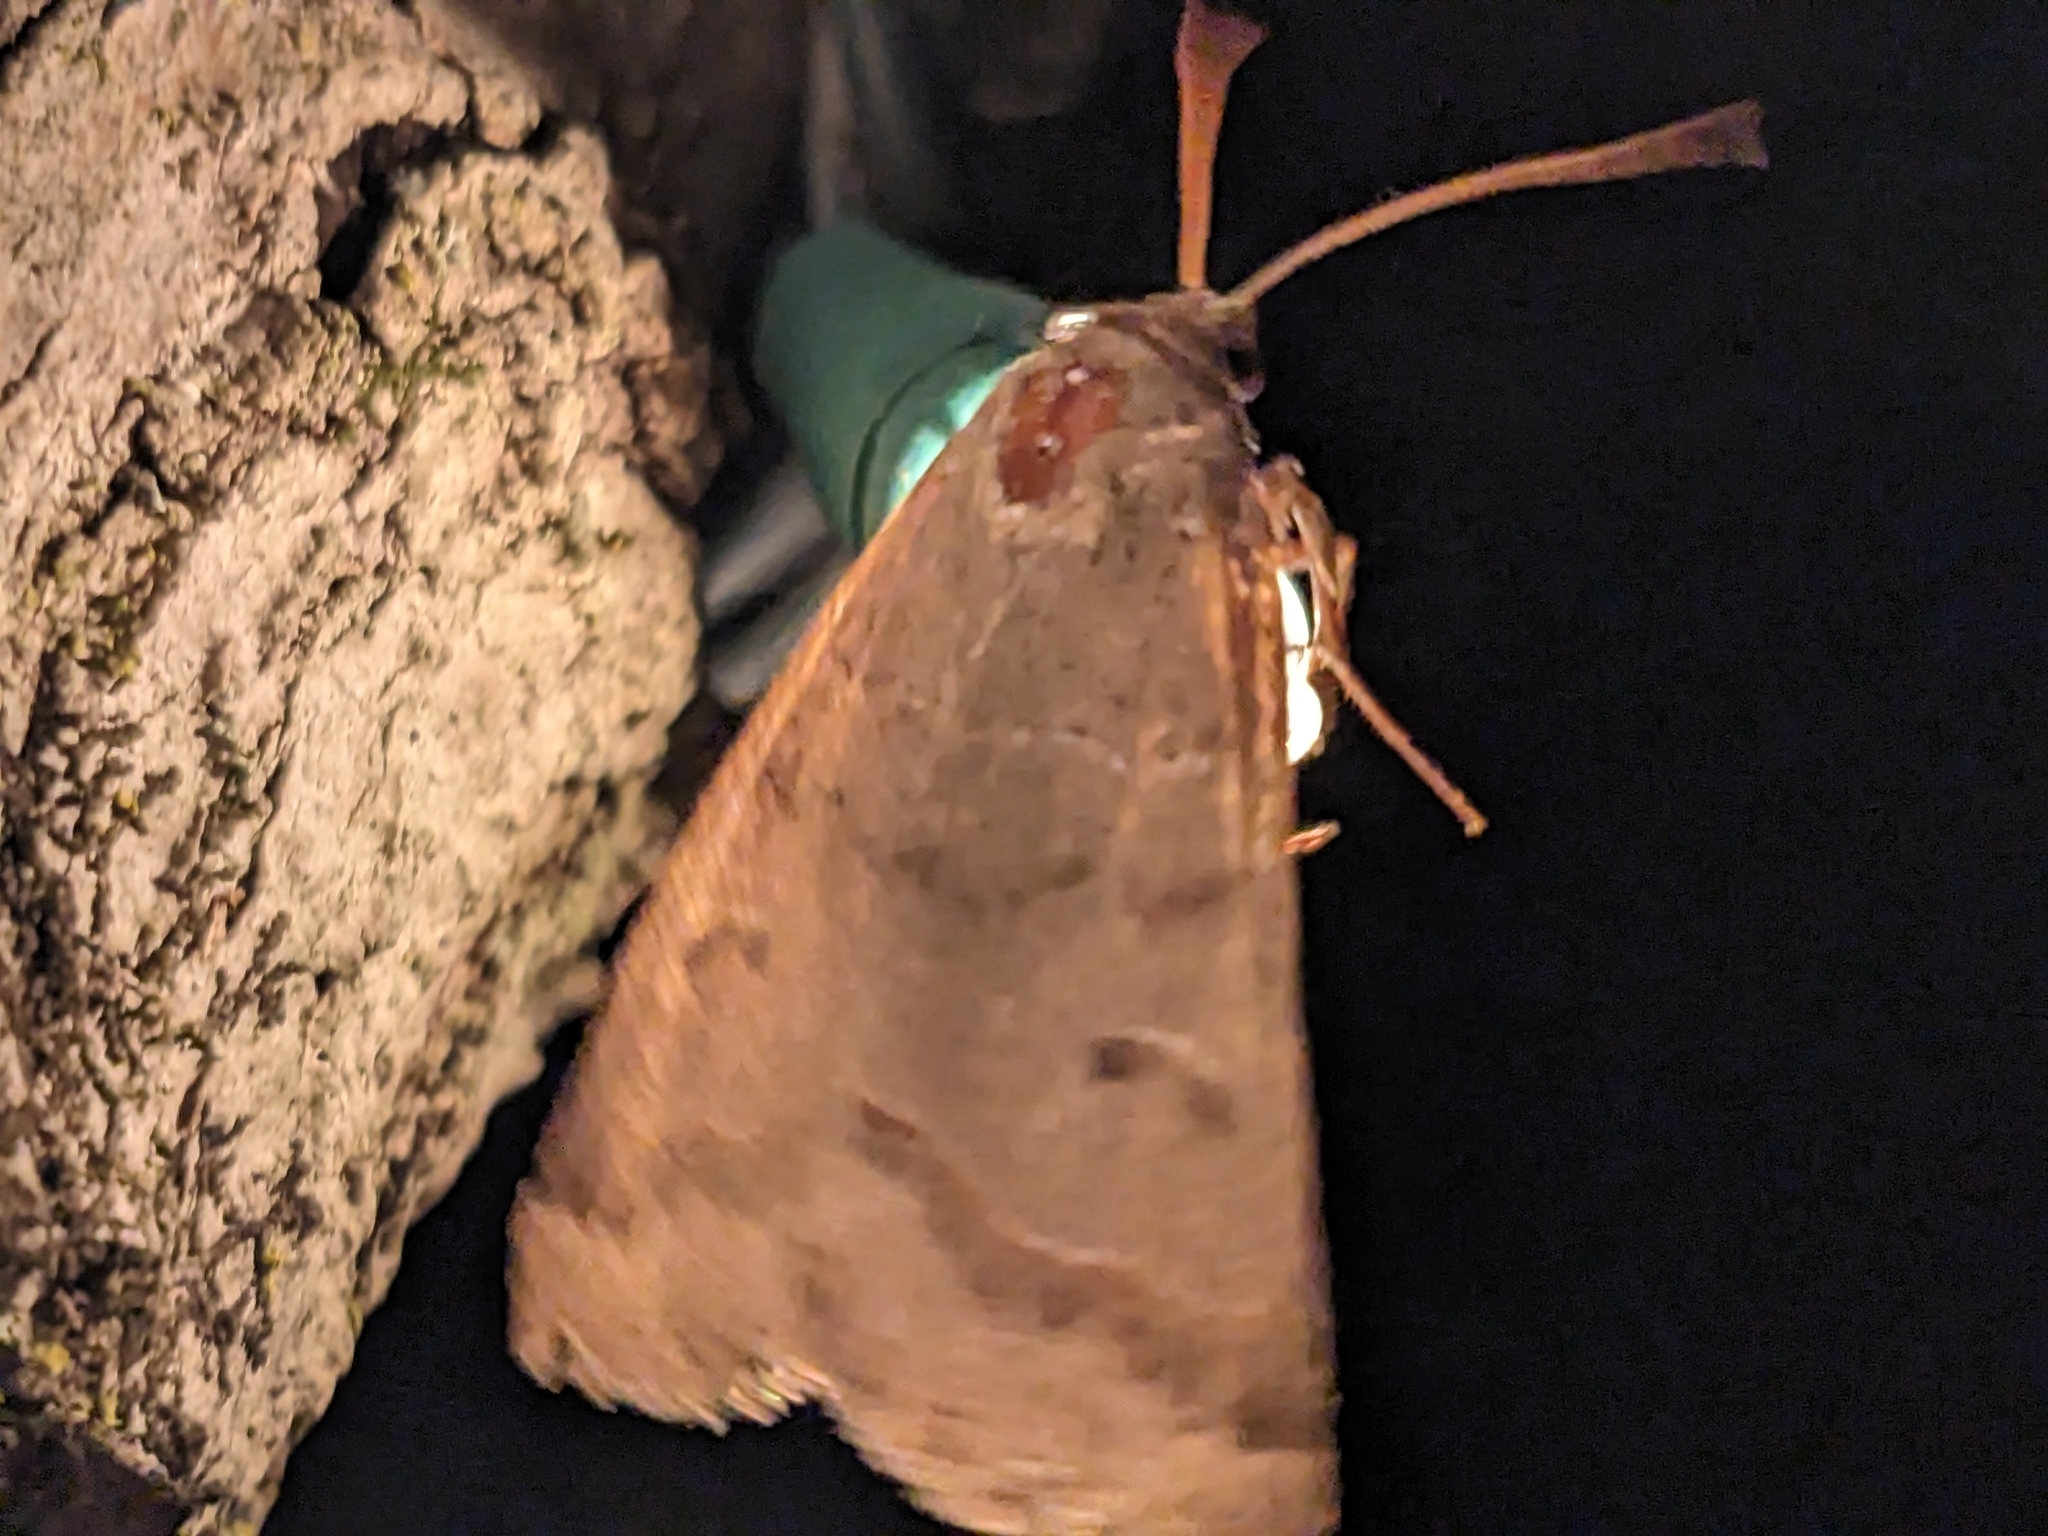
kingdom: Animalia
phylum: Arthropoda
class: Insecta
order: Lepidoptera
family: Erebidae
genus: Phoberia
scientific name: Phoberia atomaris
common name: Common oak moth
